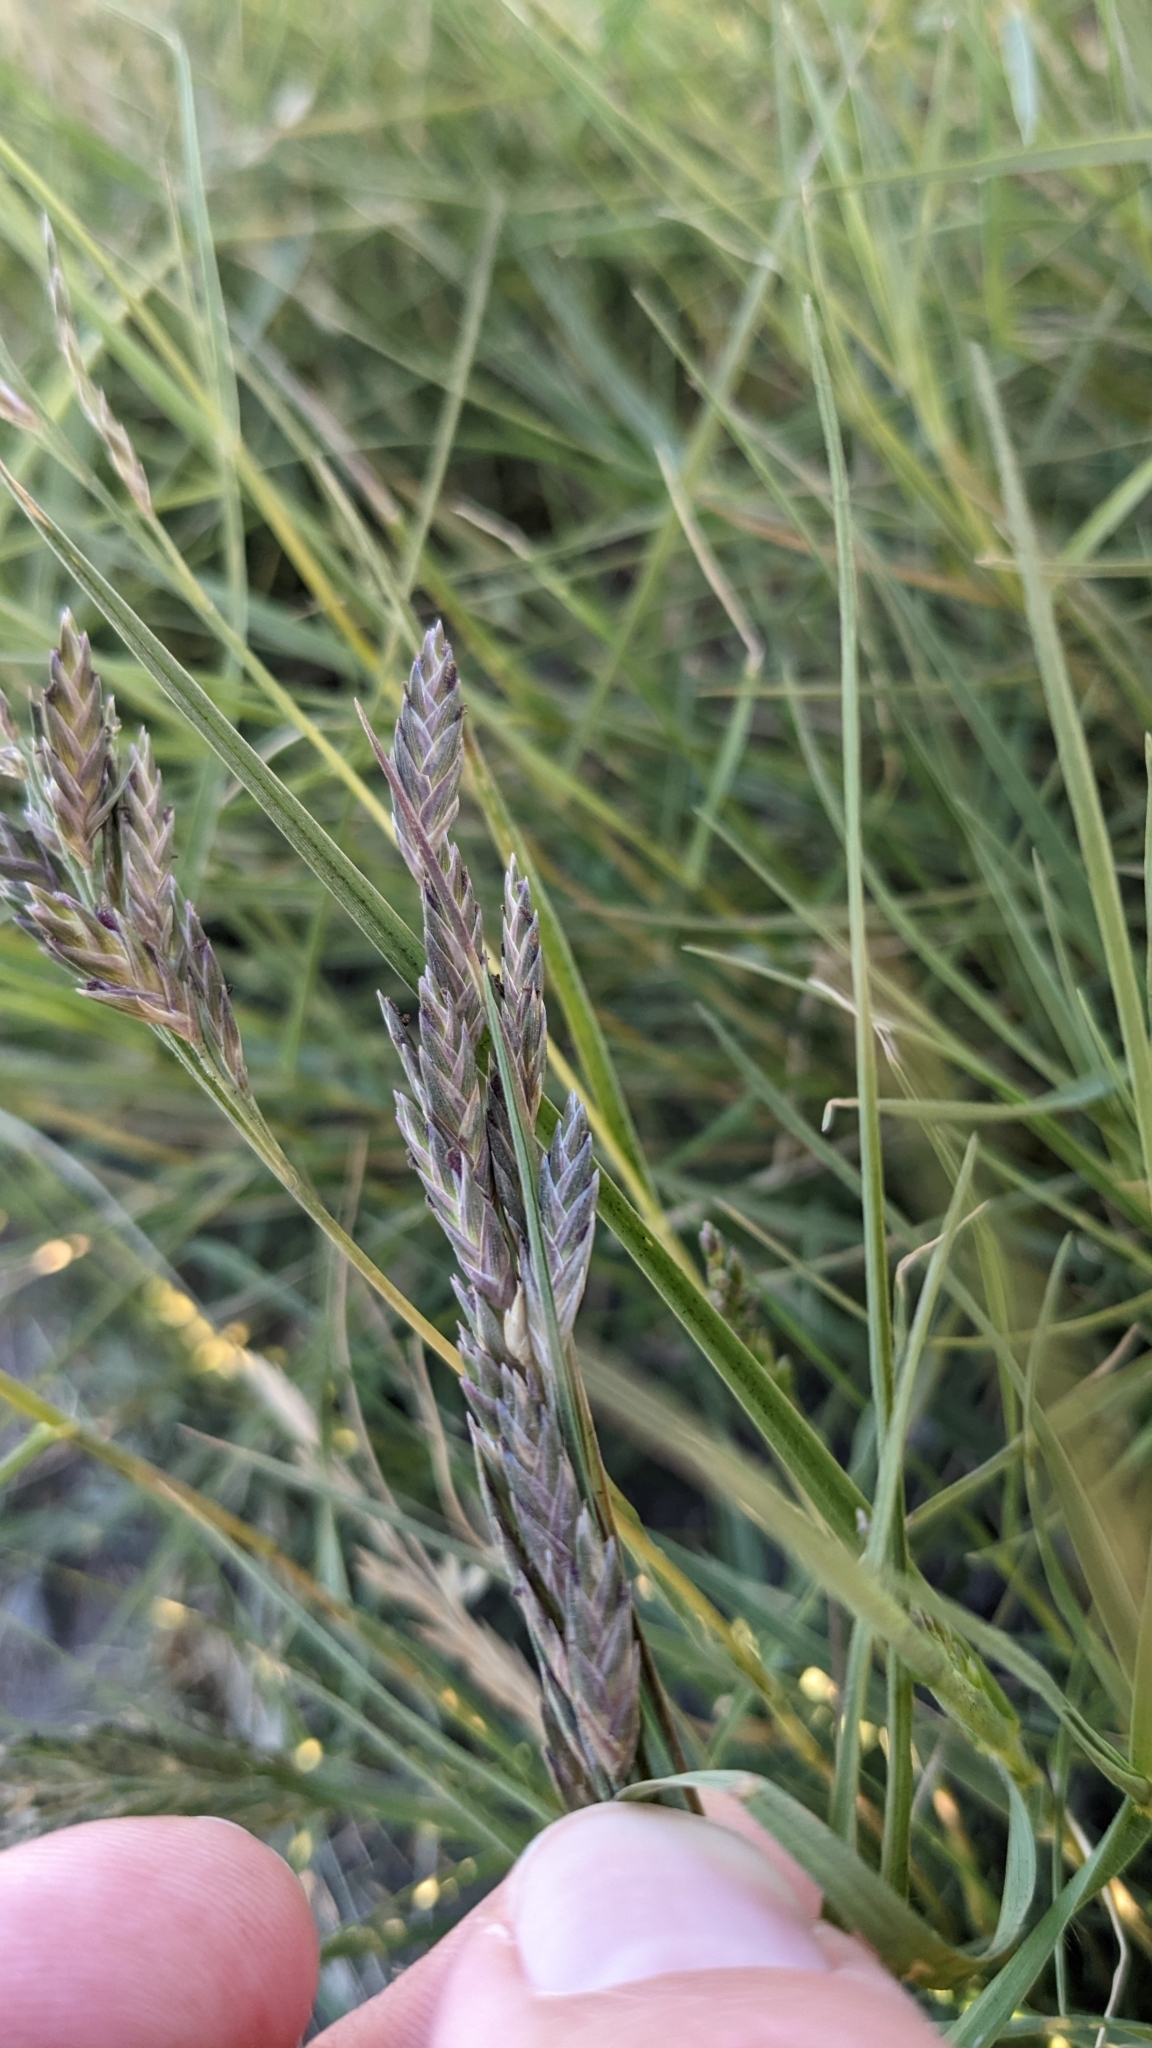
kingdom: Plantae
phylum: Tracheophyta
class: Liliopsida
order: Poales
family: Poaceae
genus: Distichlis
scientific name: Distichlis spicata
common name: Saltgrass
